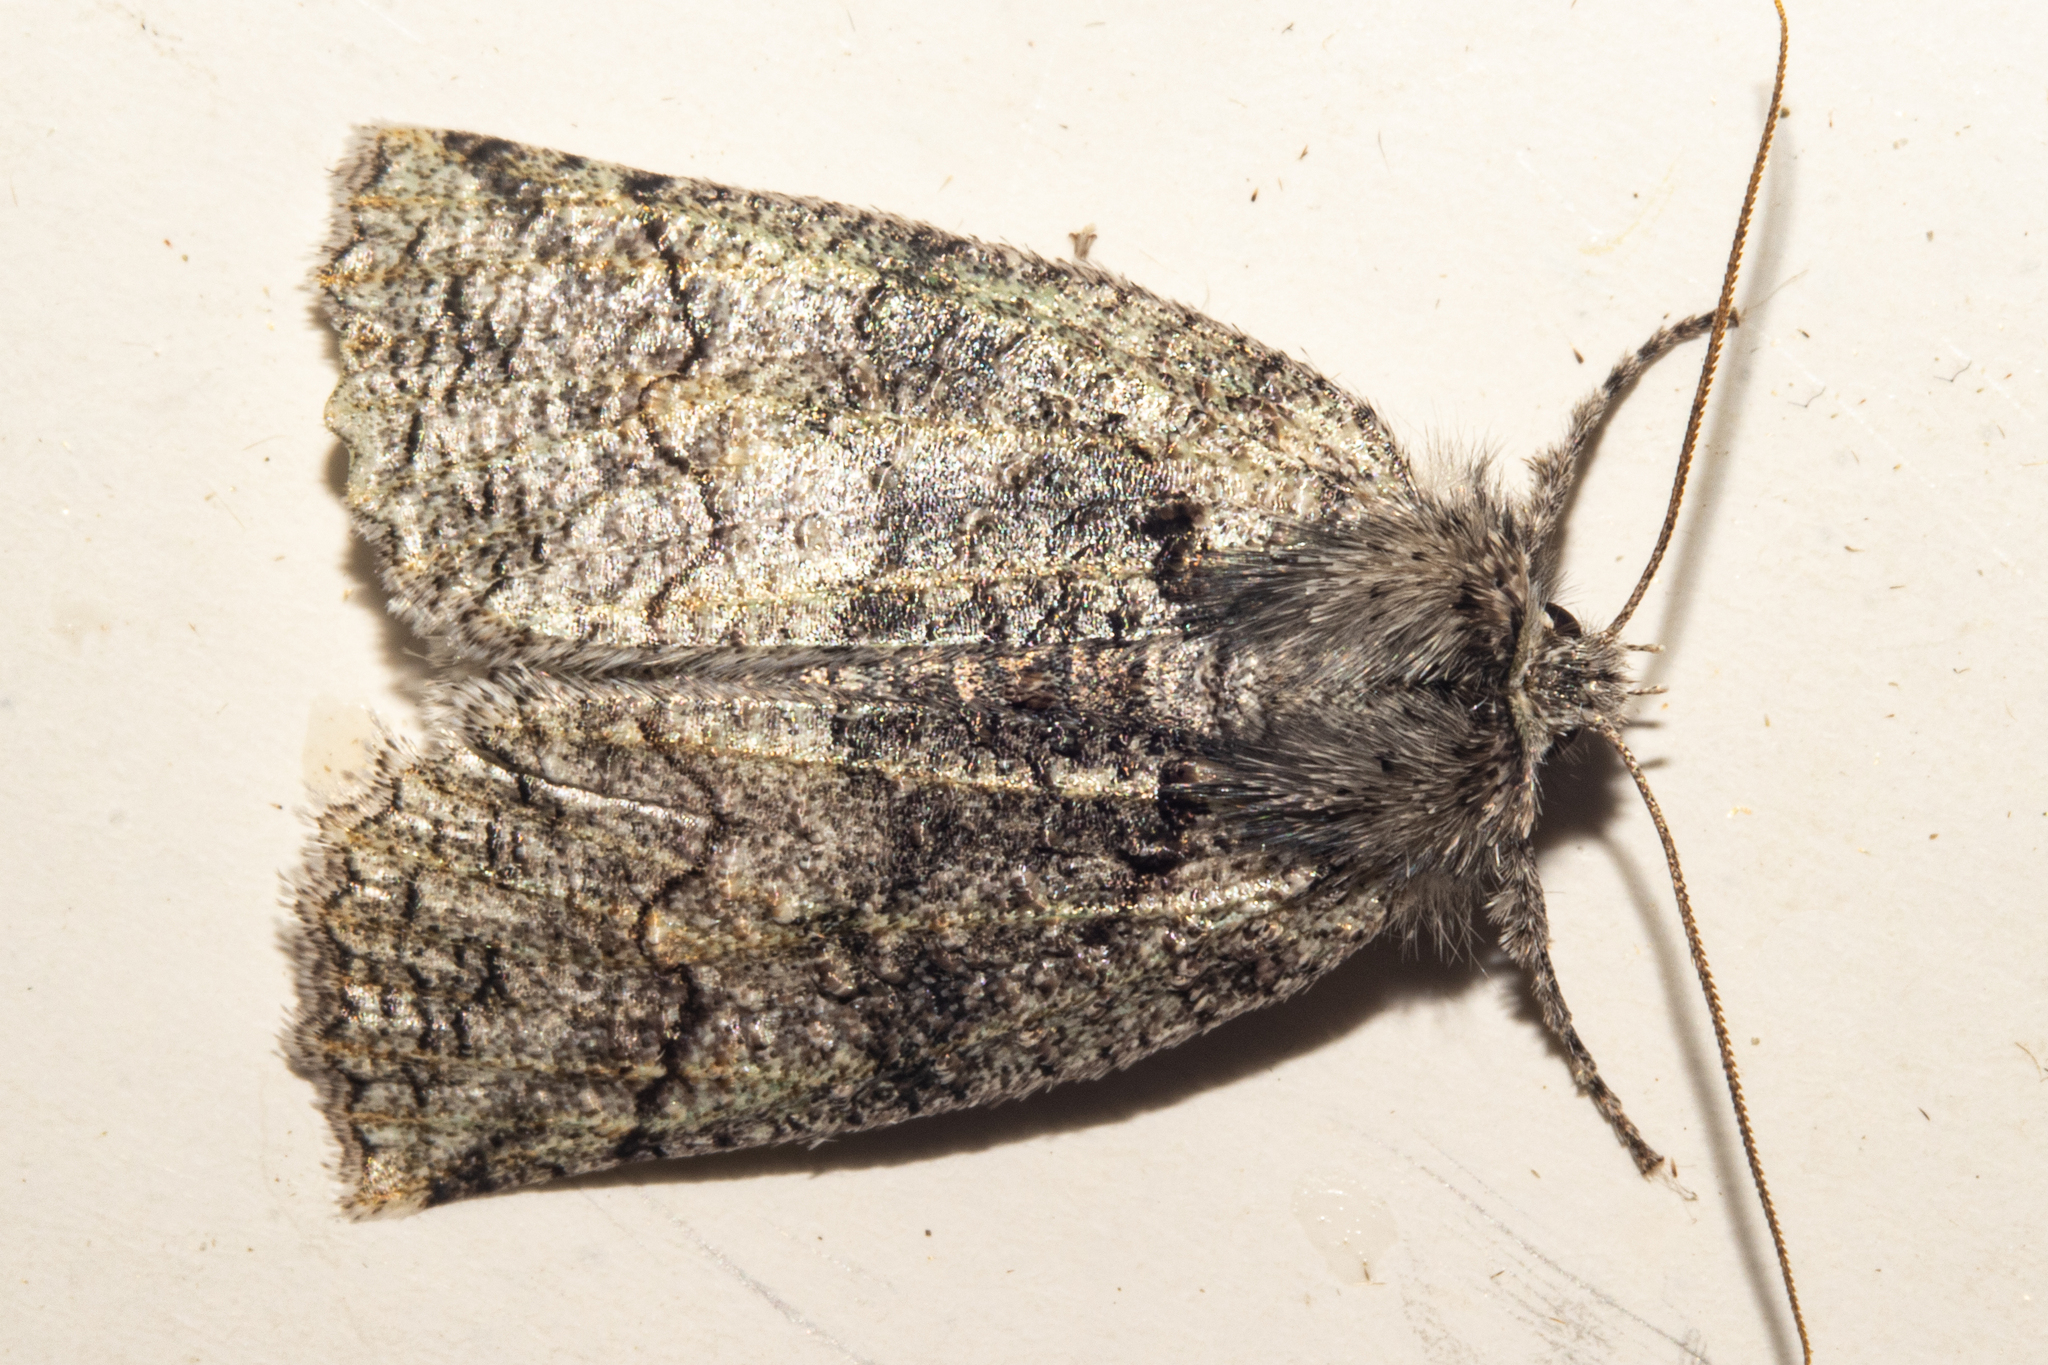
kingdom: Animalia
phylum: Arthropoda
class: Insecta
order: Lepidoptera
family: Geometridae
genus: Declana
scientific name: Declana floccosa
